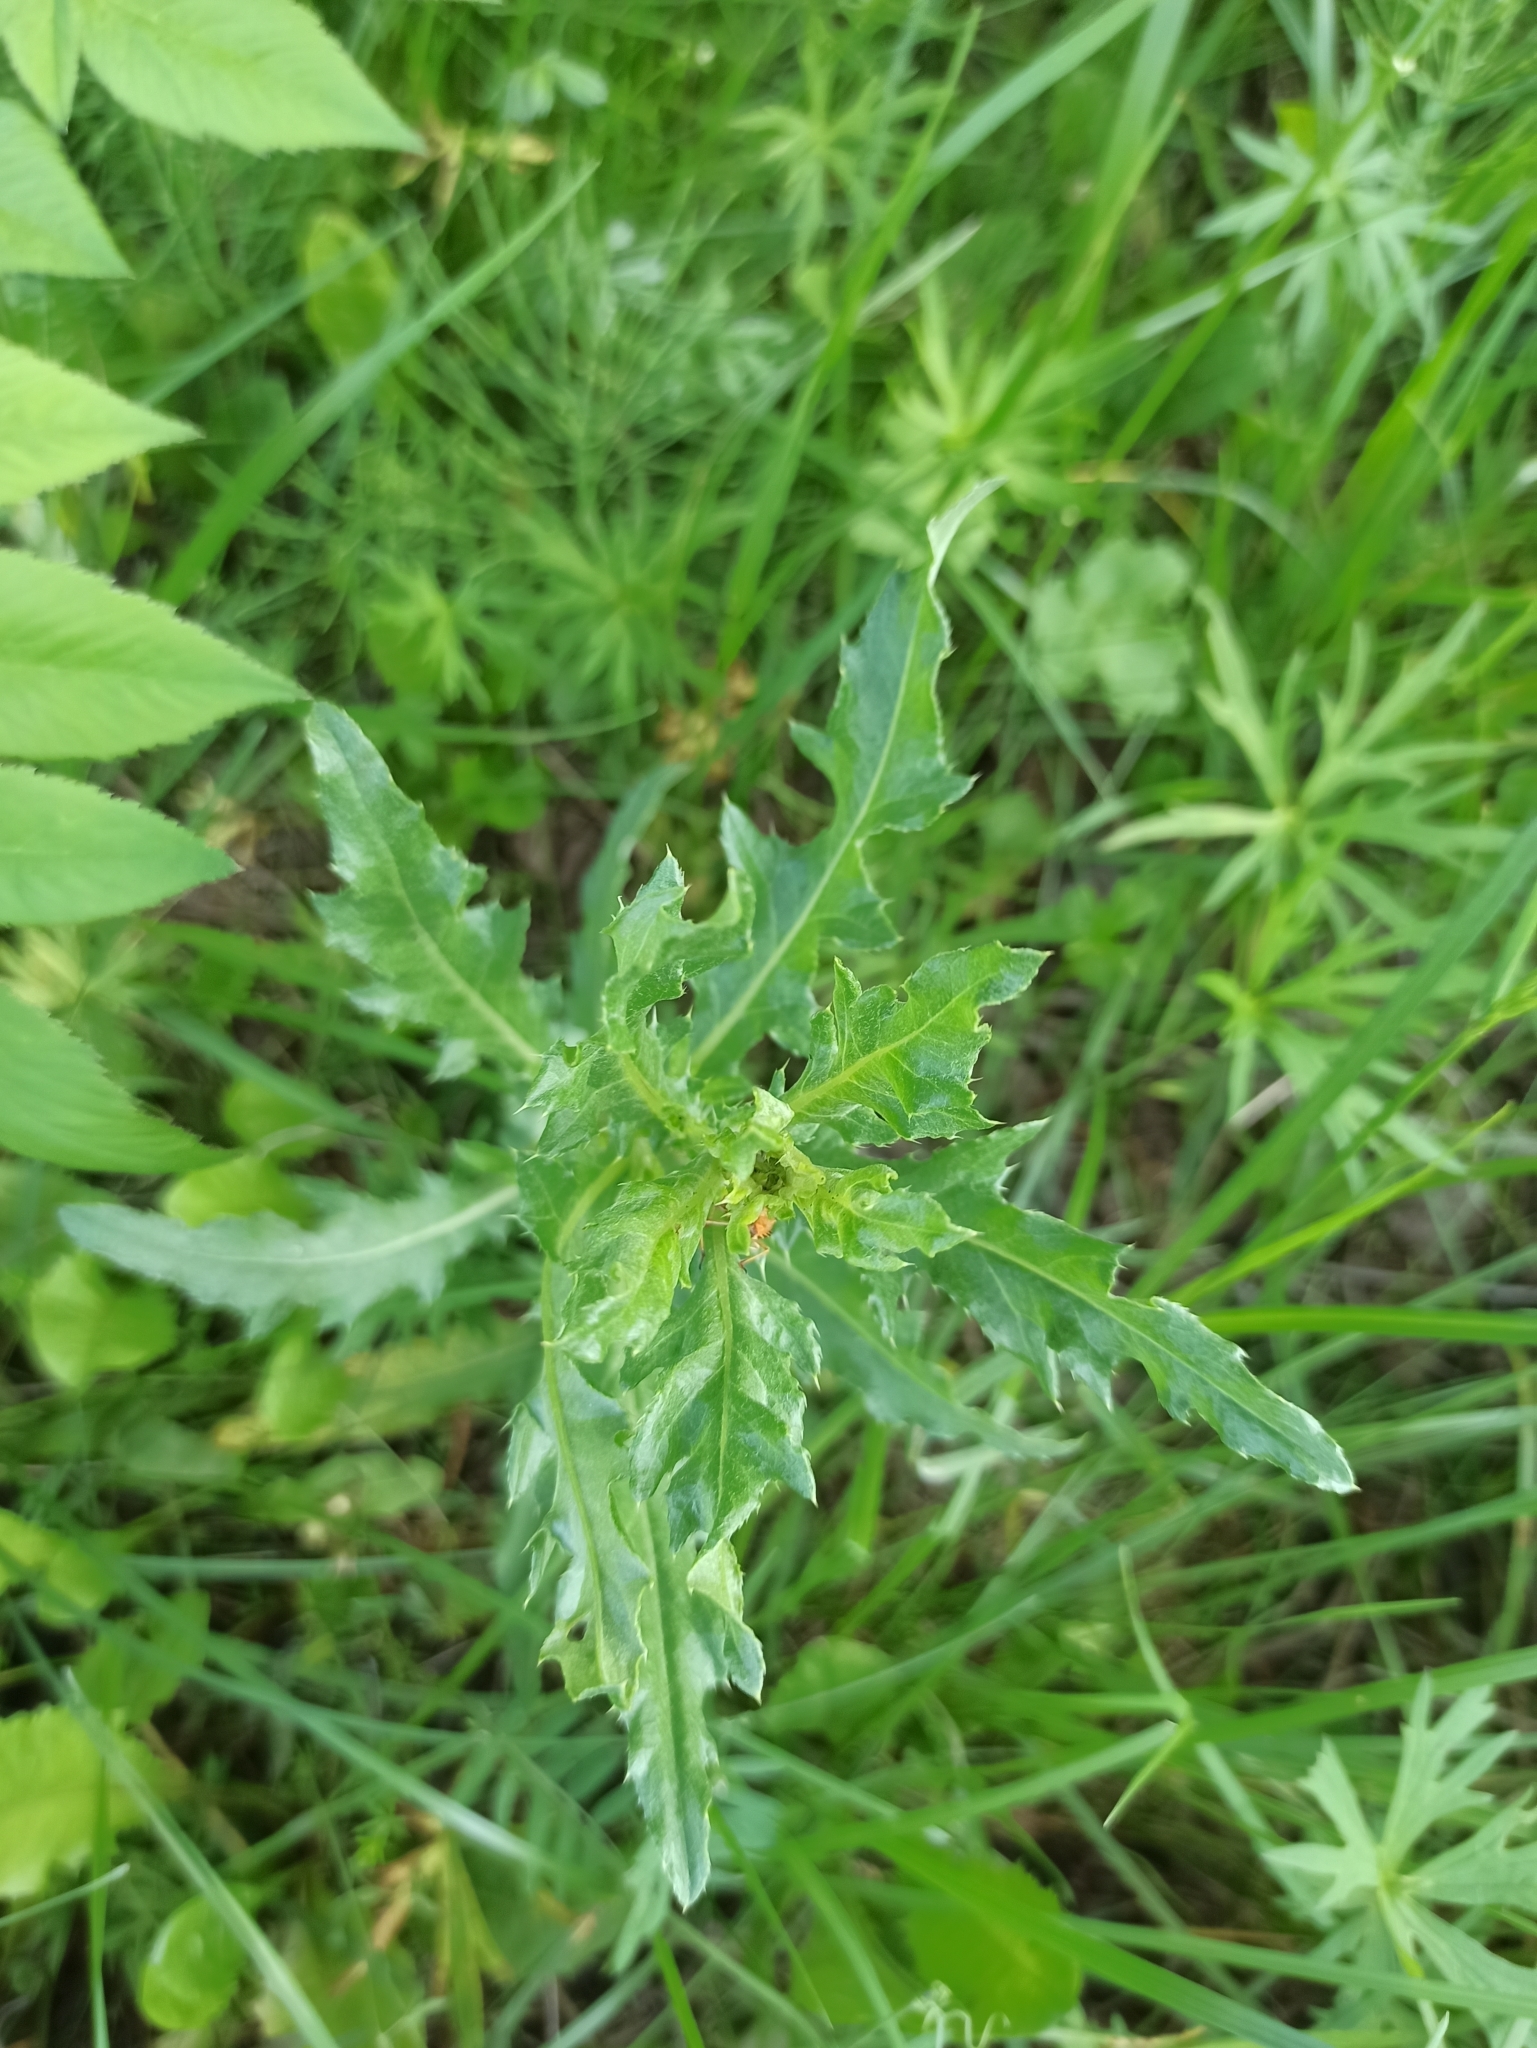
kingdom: Plantae
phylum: Tracheophyta
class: Magnoliopsida
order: Asterales
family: Asteraceae
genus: Cirsium
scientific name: Cirsium arvense
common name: Creeping thistle
